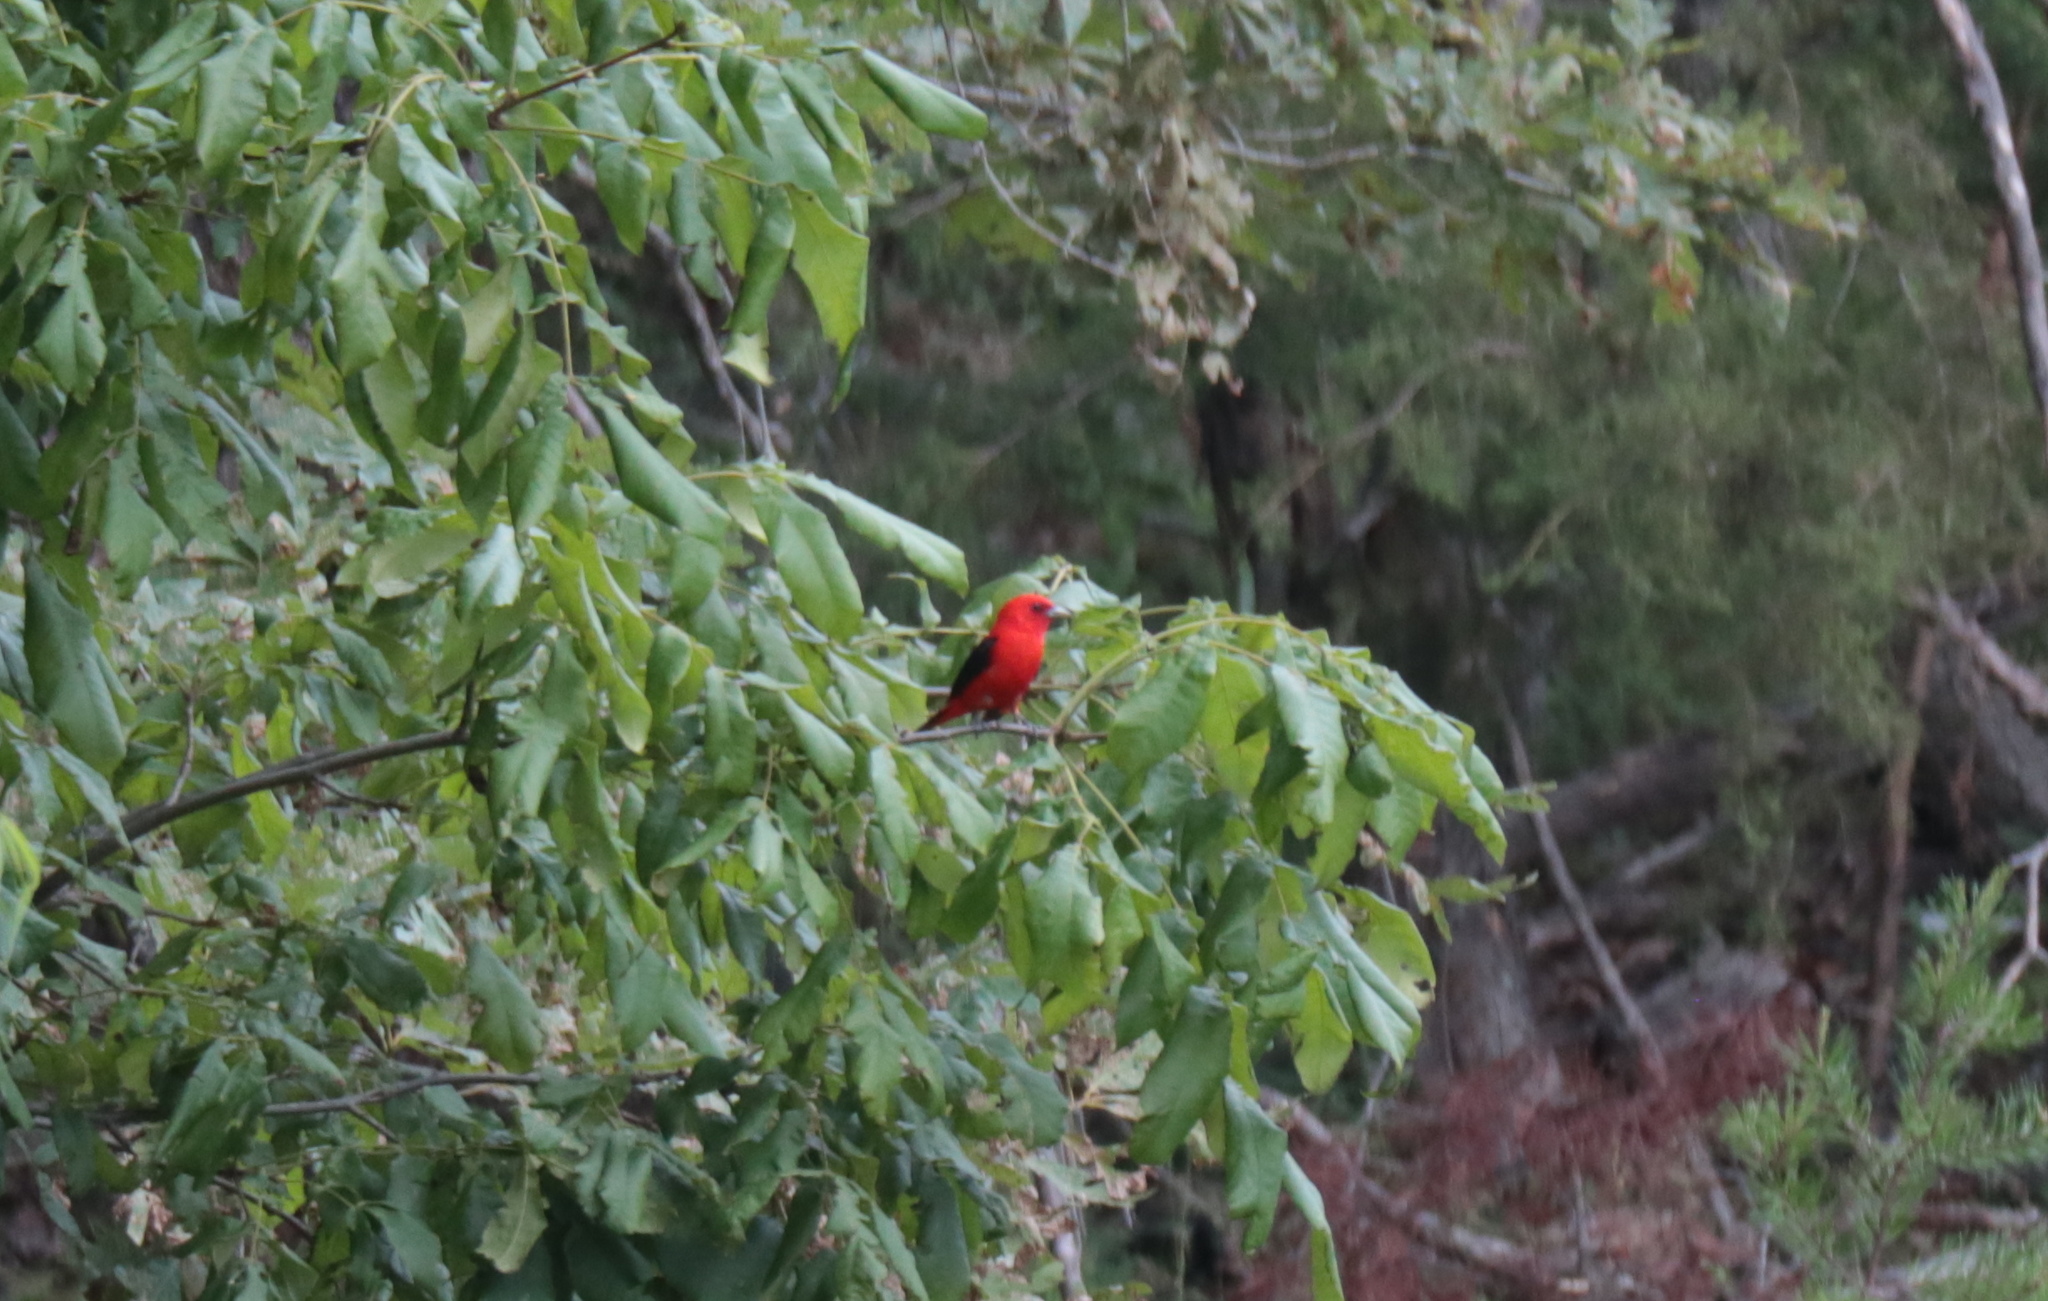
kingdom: Animalia
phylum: Chordata
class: Aves
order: Passeriformes
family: Cardinalidae
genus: Piranga
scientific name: Piranga olivacea
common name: Scarlet tanager
